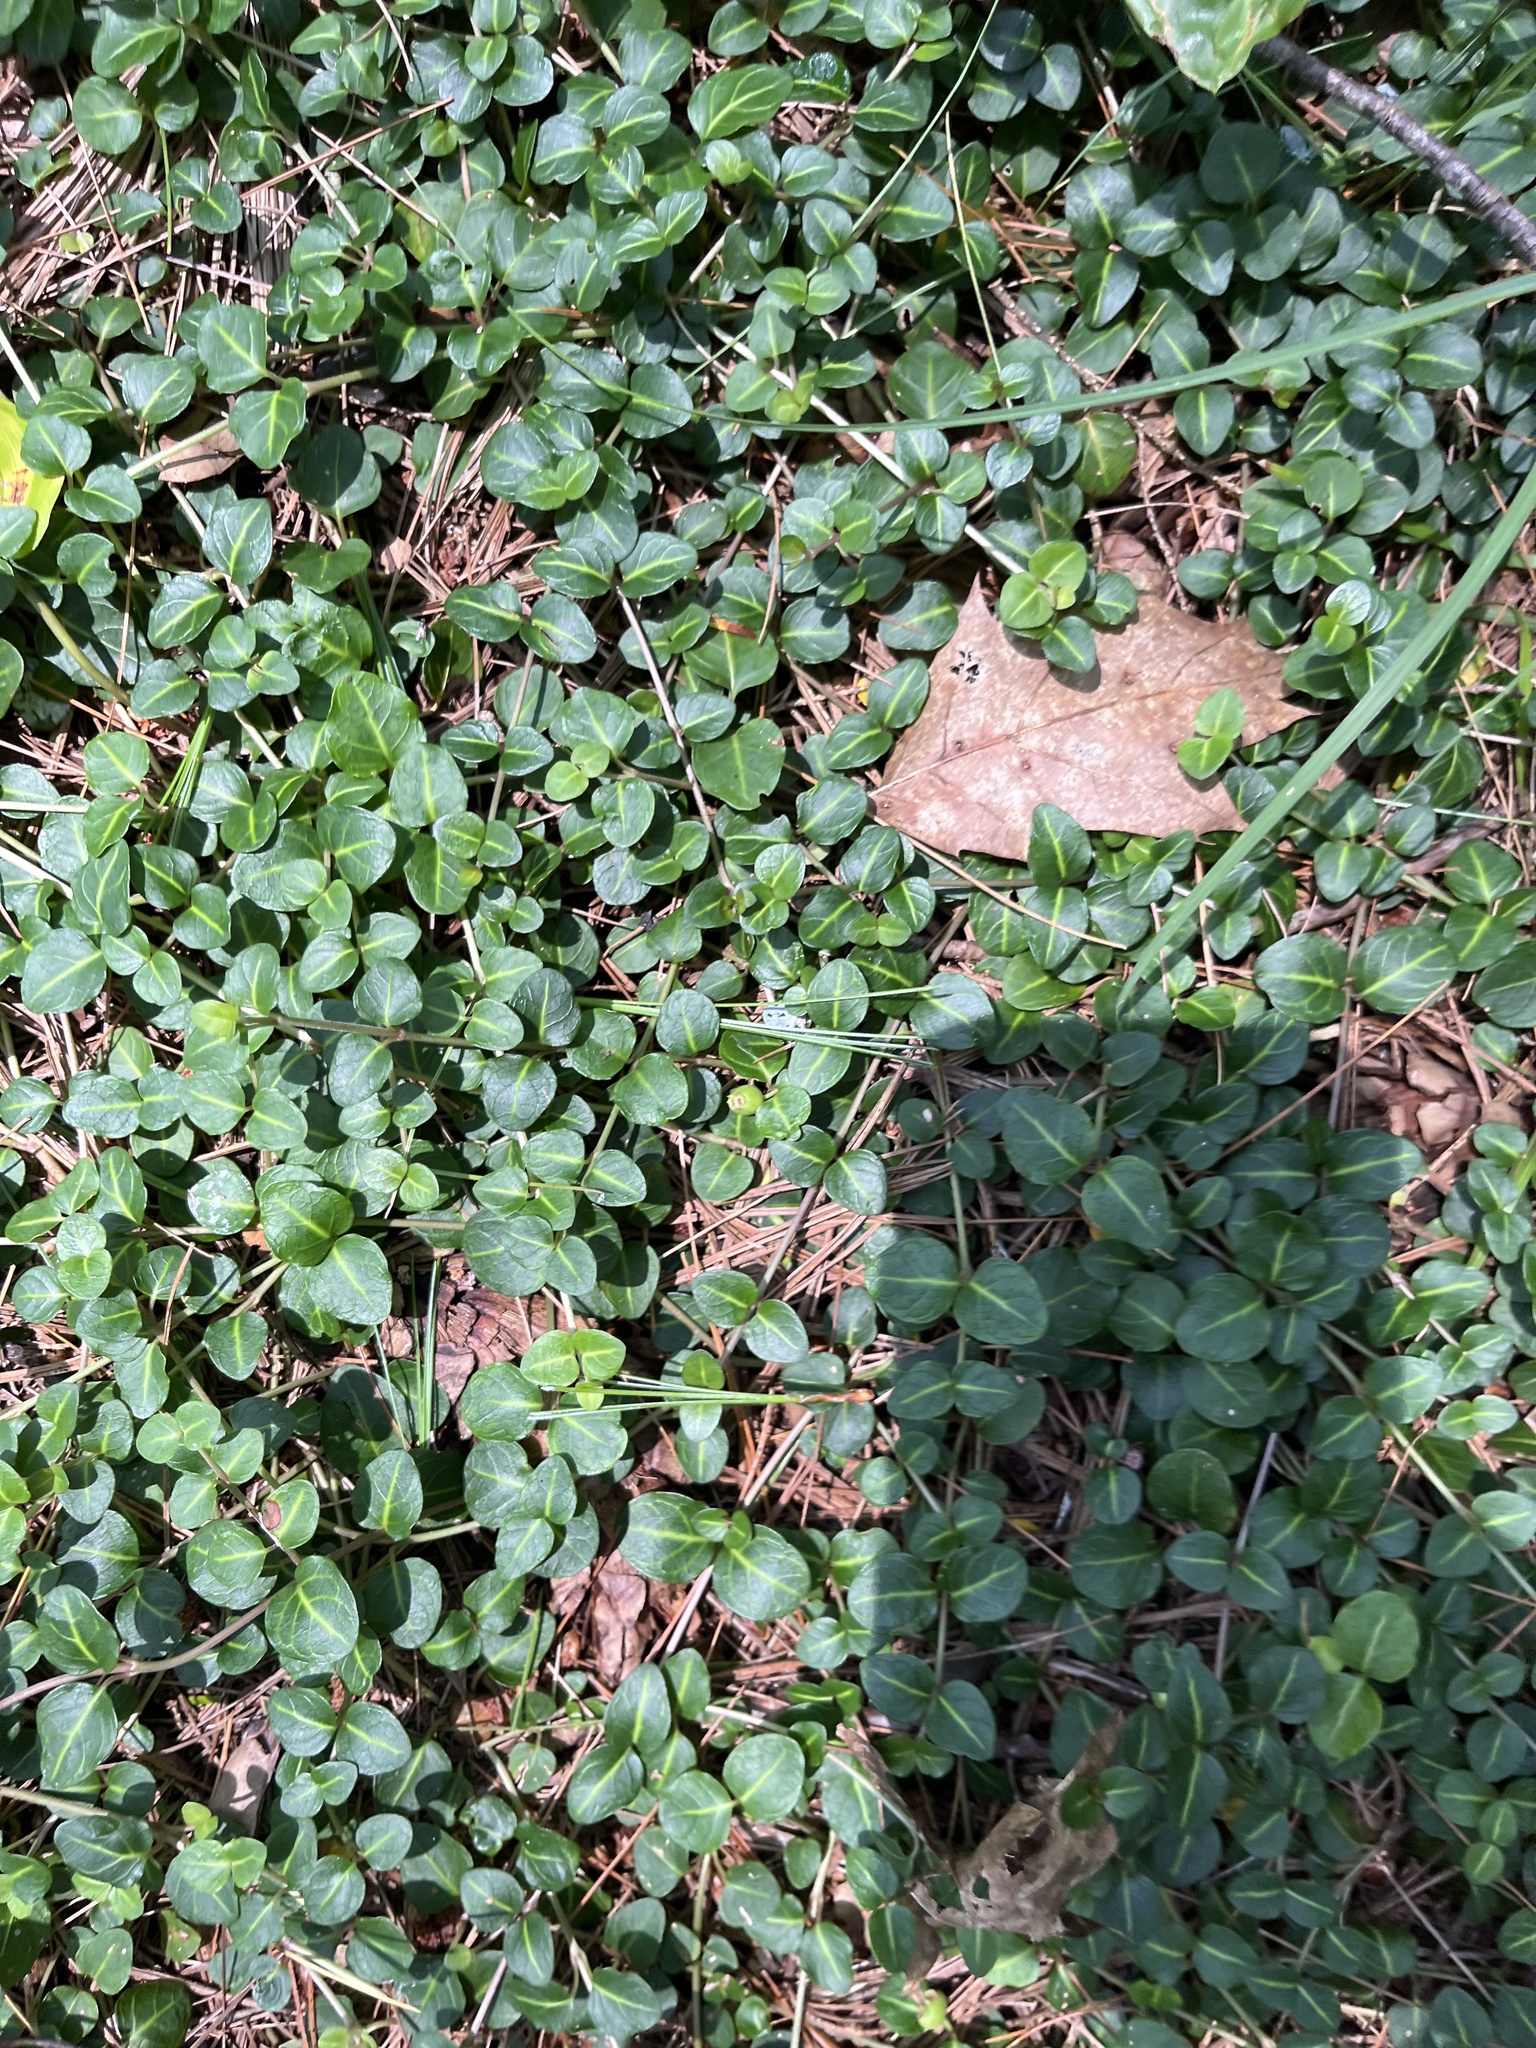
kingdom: Plantae
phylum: Tracheophyta
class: Magnoliopsida
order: Gentianales
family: Rubiaceae
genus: Mitchella
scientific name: Mitchella repens
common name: Partridge-berry
